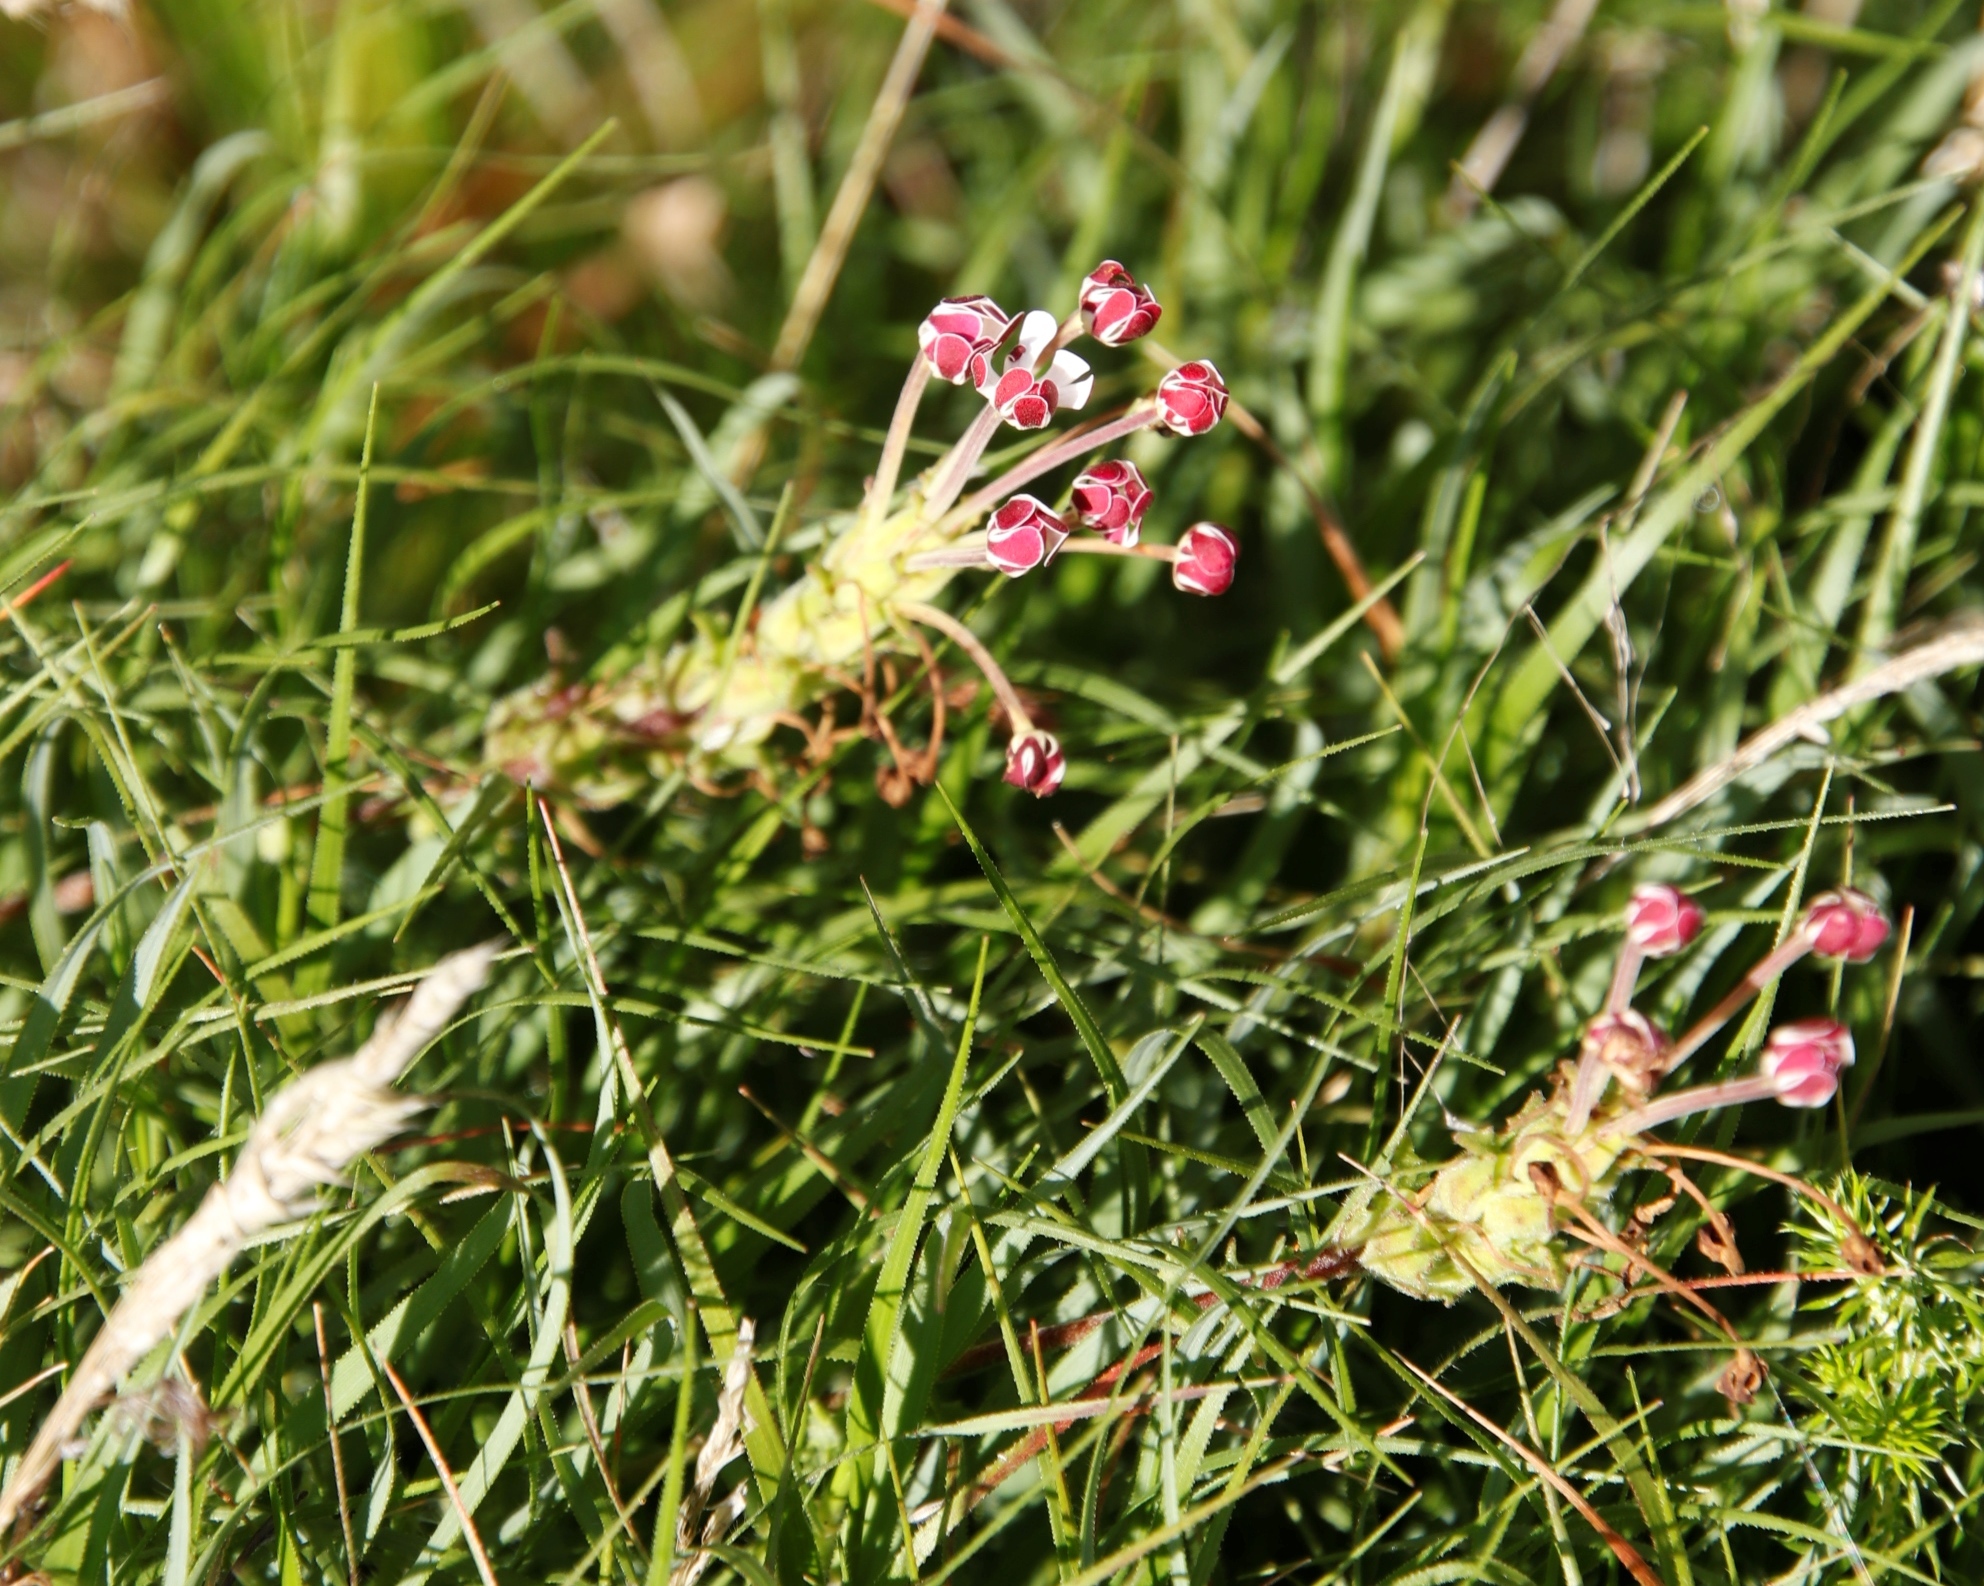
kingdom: Plantae
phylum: Tracheophyta
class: Magnoliopsida
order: Lamiales
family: Scrophulariaceae
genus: Zaluzianskya
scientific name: Zaluzianskya capensis
